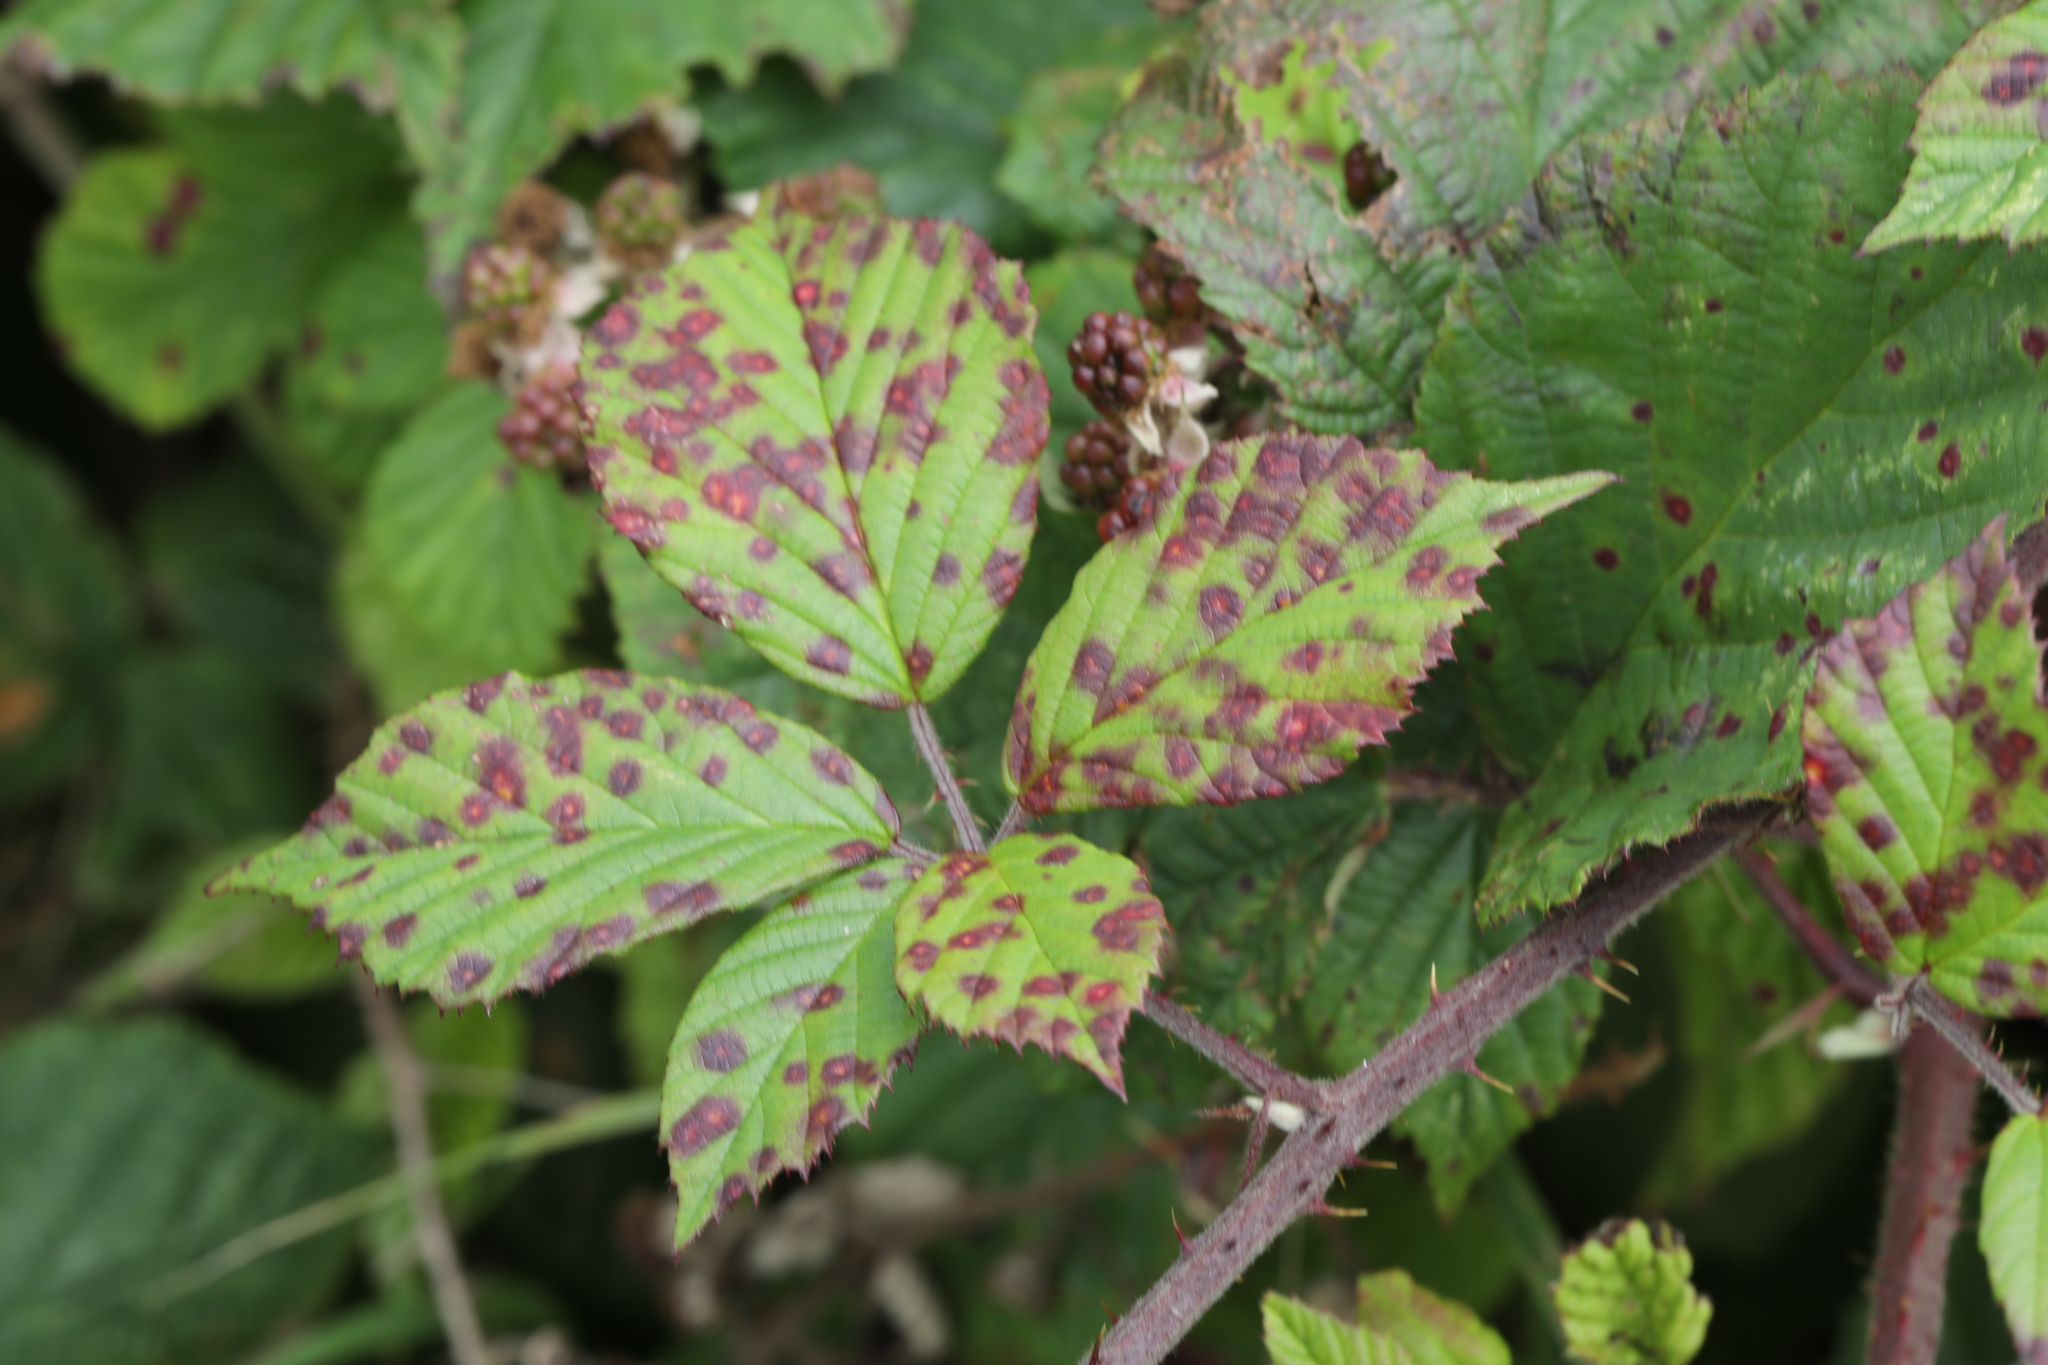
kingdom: Fungi
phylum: Basidiomycota
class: Pucciniomycetes
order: Pucciniales
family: Phragmidiaceae
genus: Phragmidium
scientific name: Phragmidium violaceum
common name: Violet bramble rust
